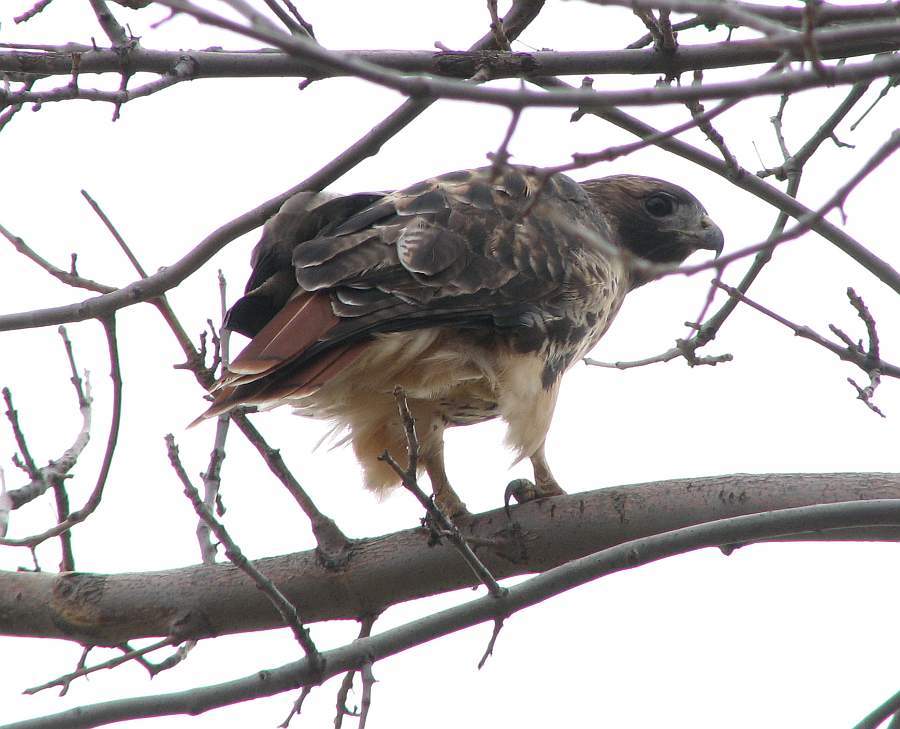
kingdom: Animalia
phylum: Chordata
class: Aves
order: Accipitriformes
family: Accipitridae
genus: Buteo
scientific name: Buteo jamaicensis
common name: Red-tailed hawk
